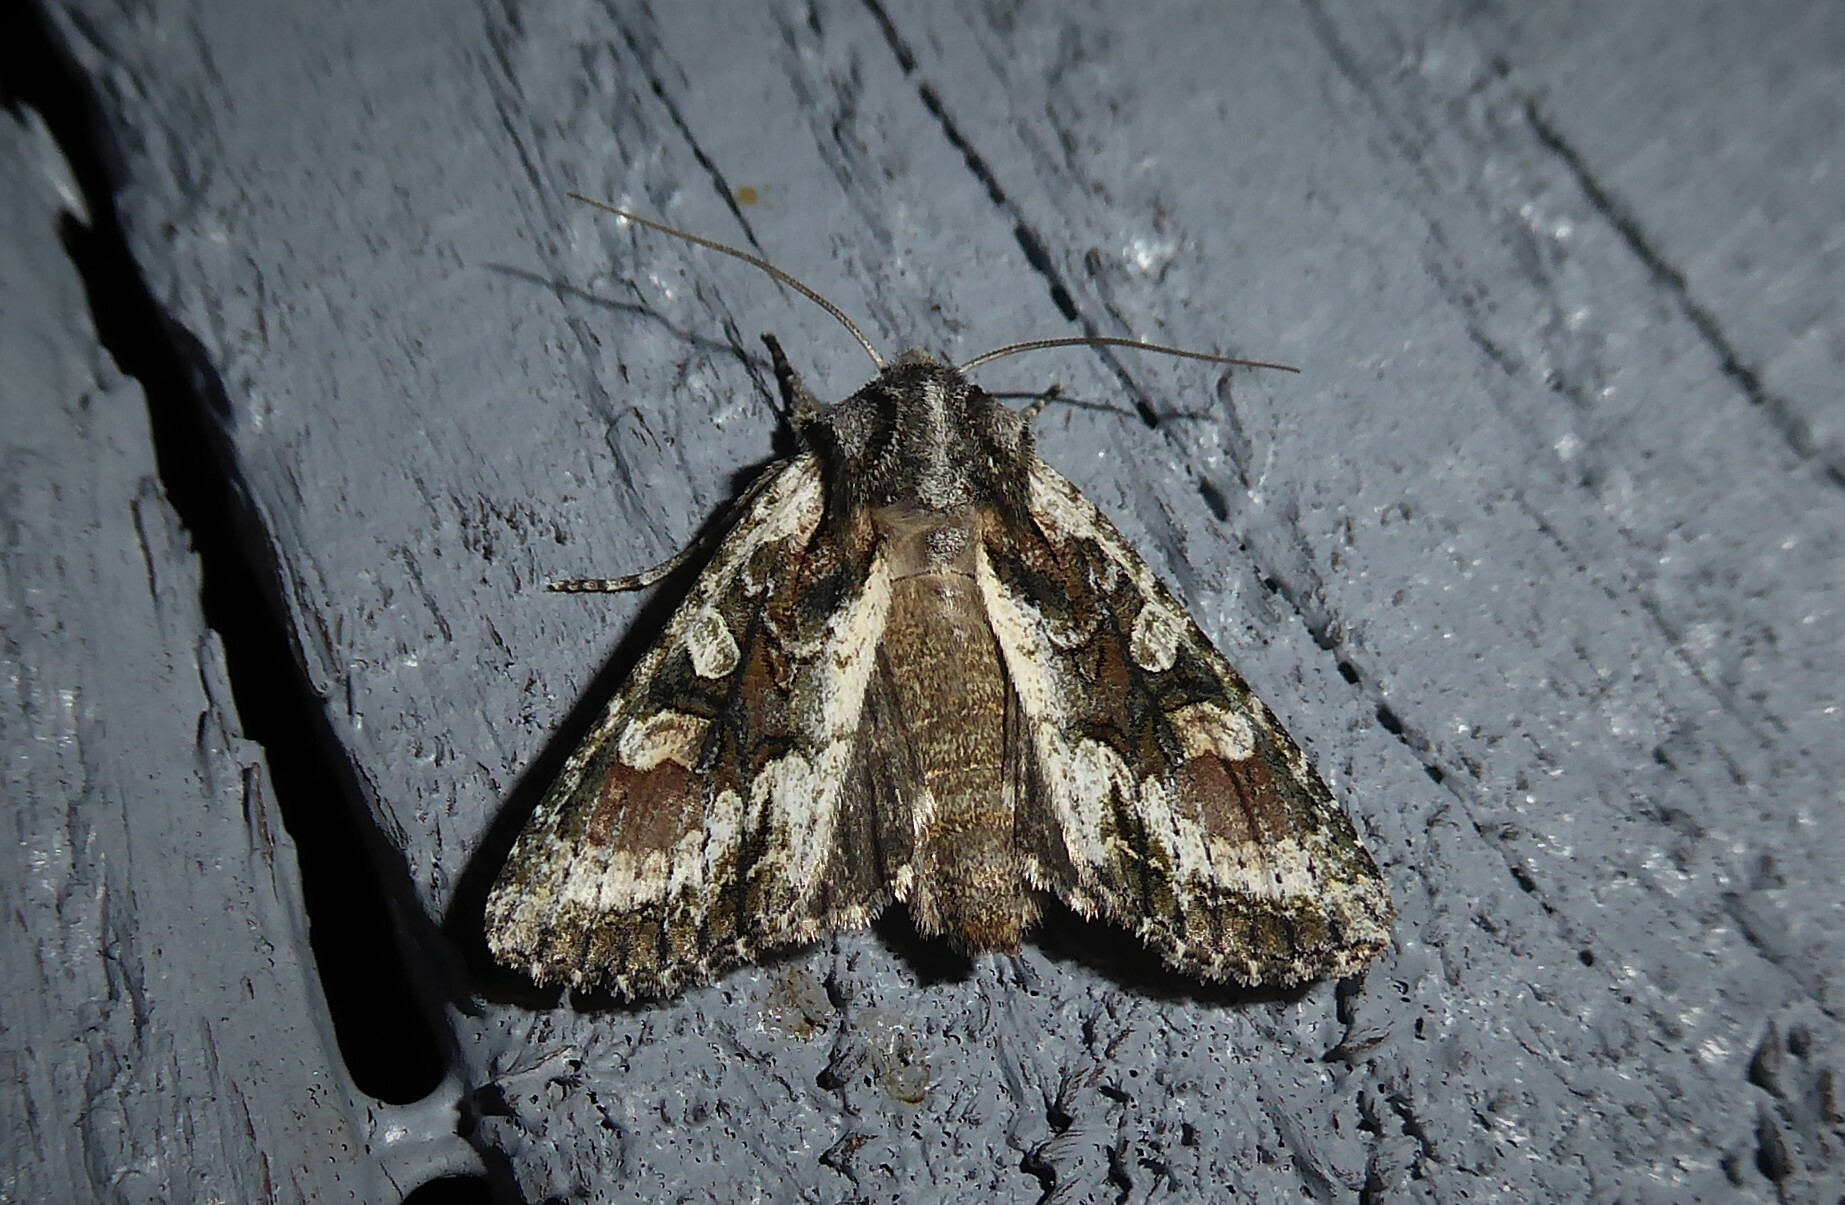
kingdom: Animalia
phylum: Arthropoda
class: Insecta
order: Lepidoptera
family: Noctuidae
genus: Ichneutica
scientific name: Ichneutica mutans
